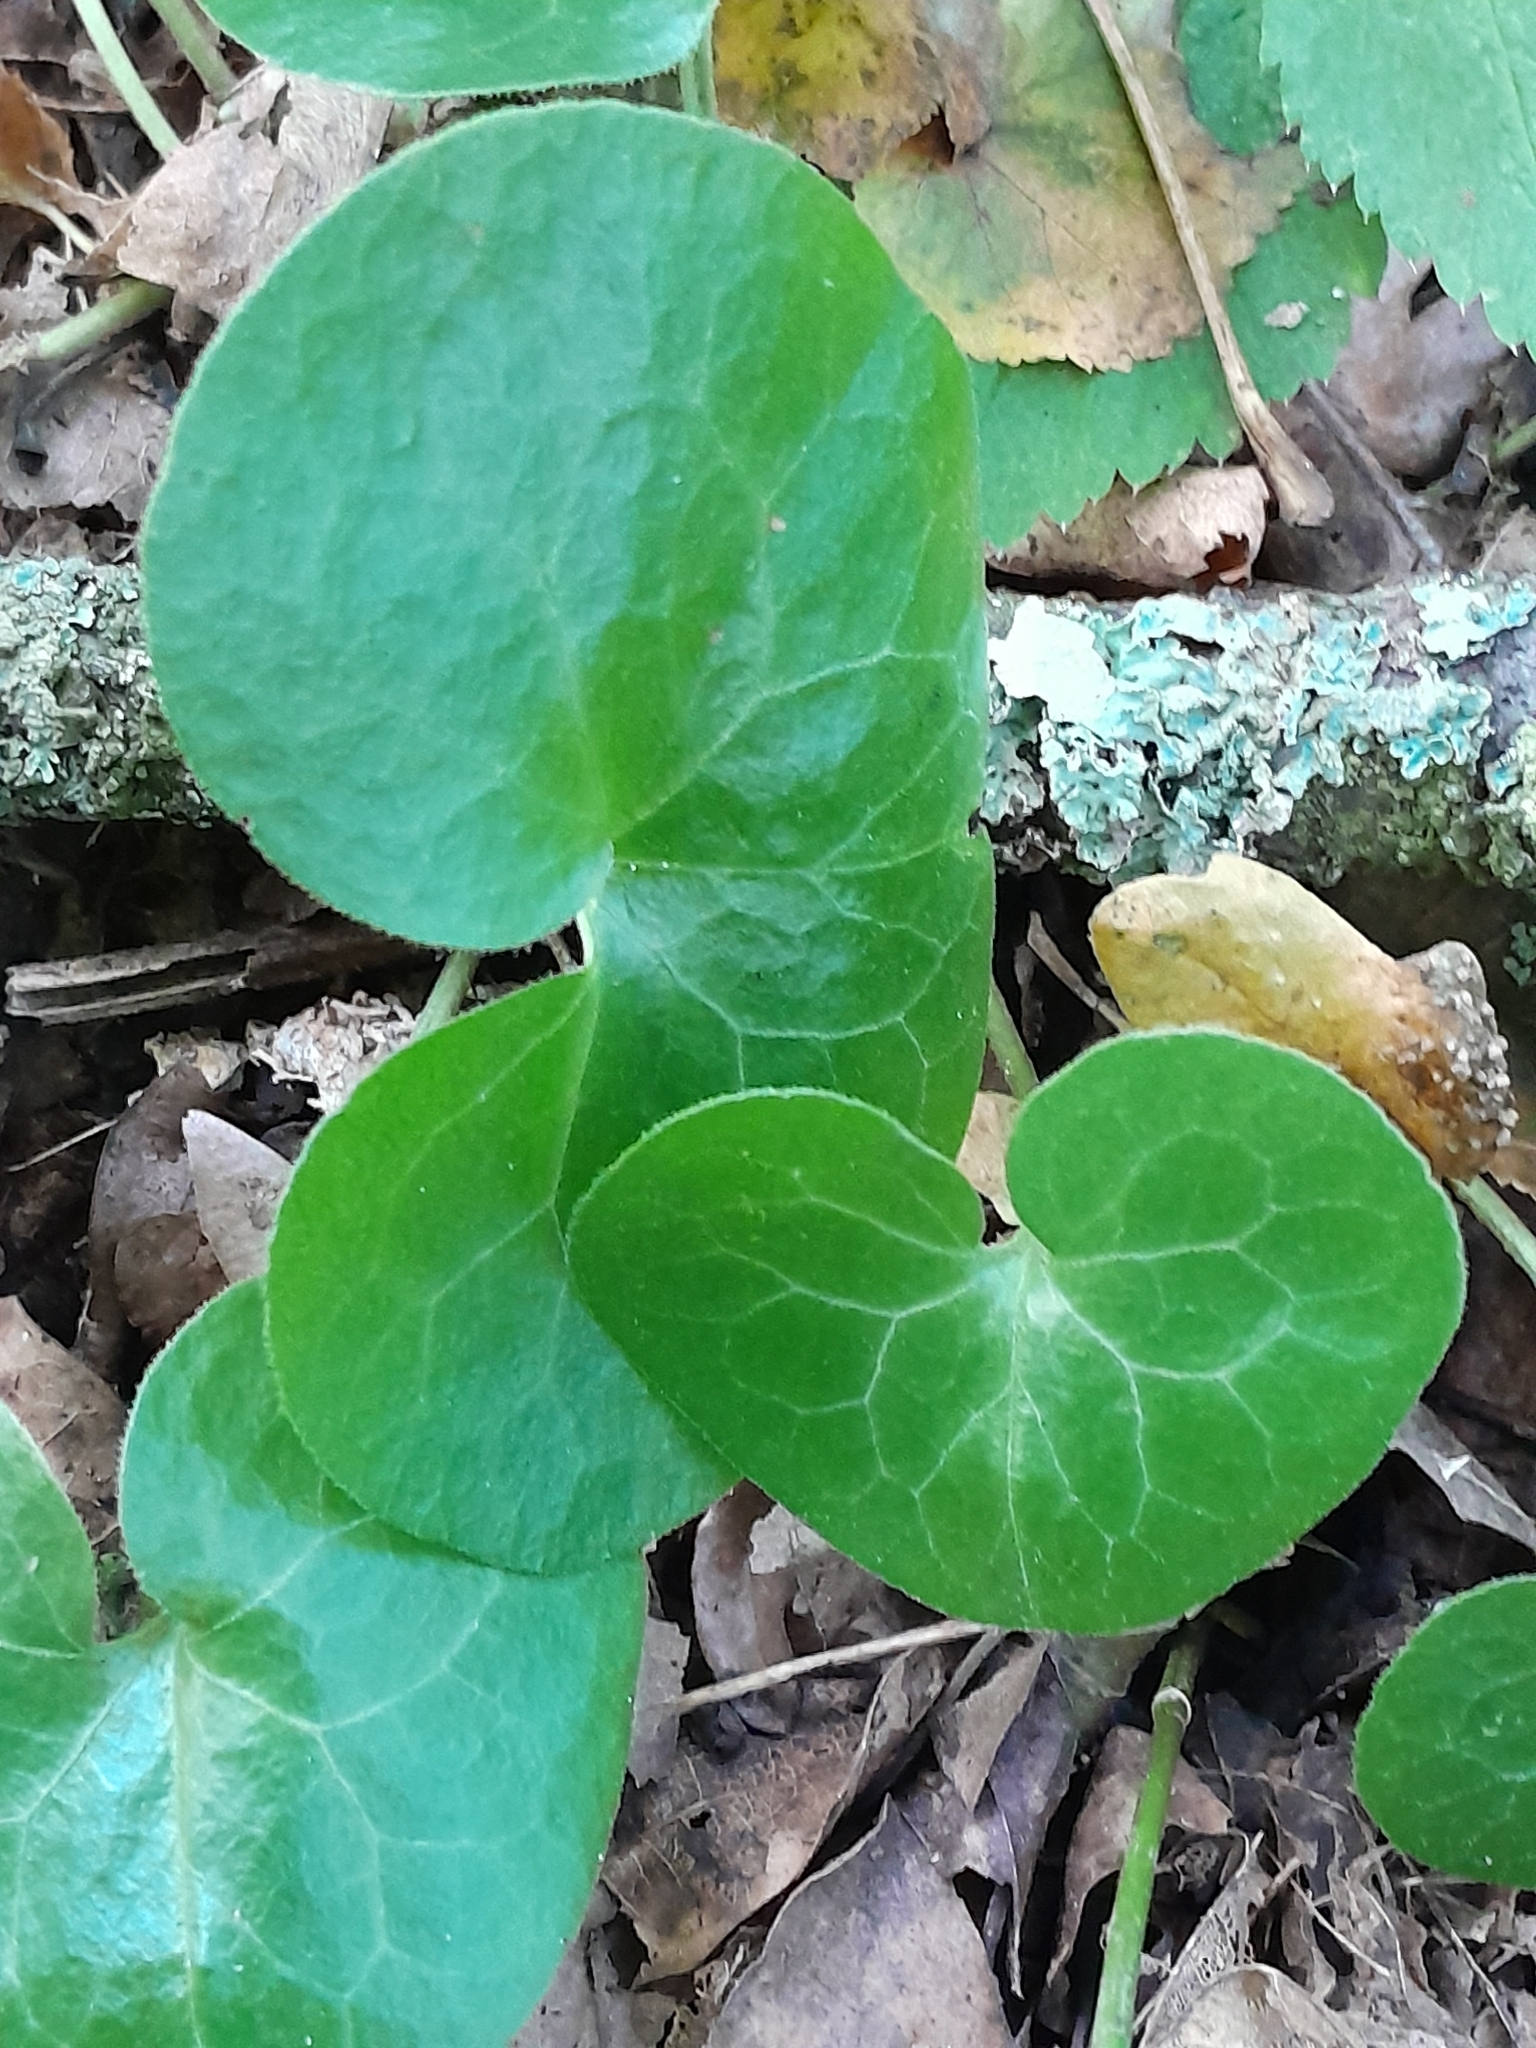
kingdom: Plantae
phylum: Tracheophyta
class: Magnoliopsida
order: Piperales
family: Aristolochiaceae
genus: Asarum
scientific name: Asarum europaeum
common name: Asarabacca
